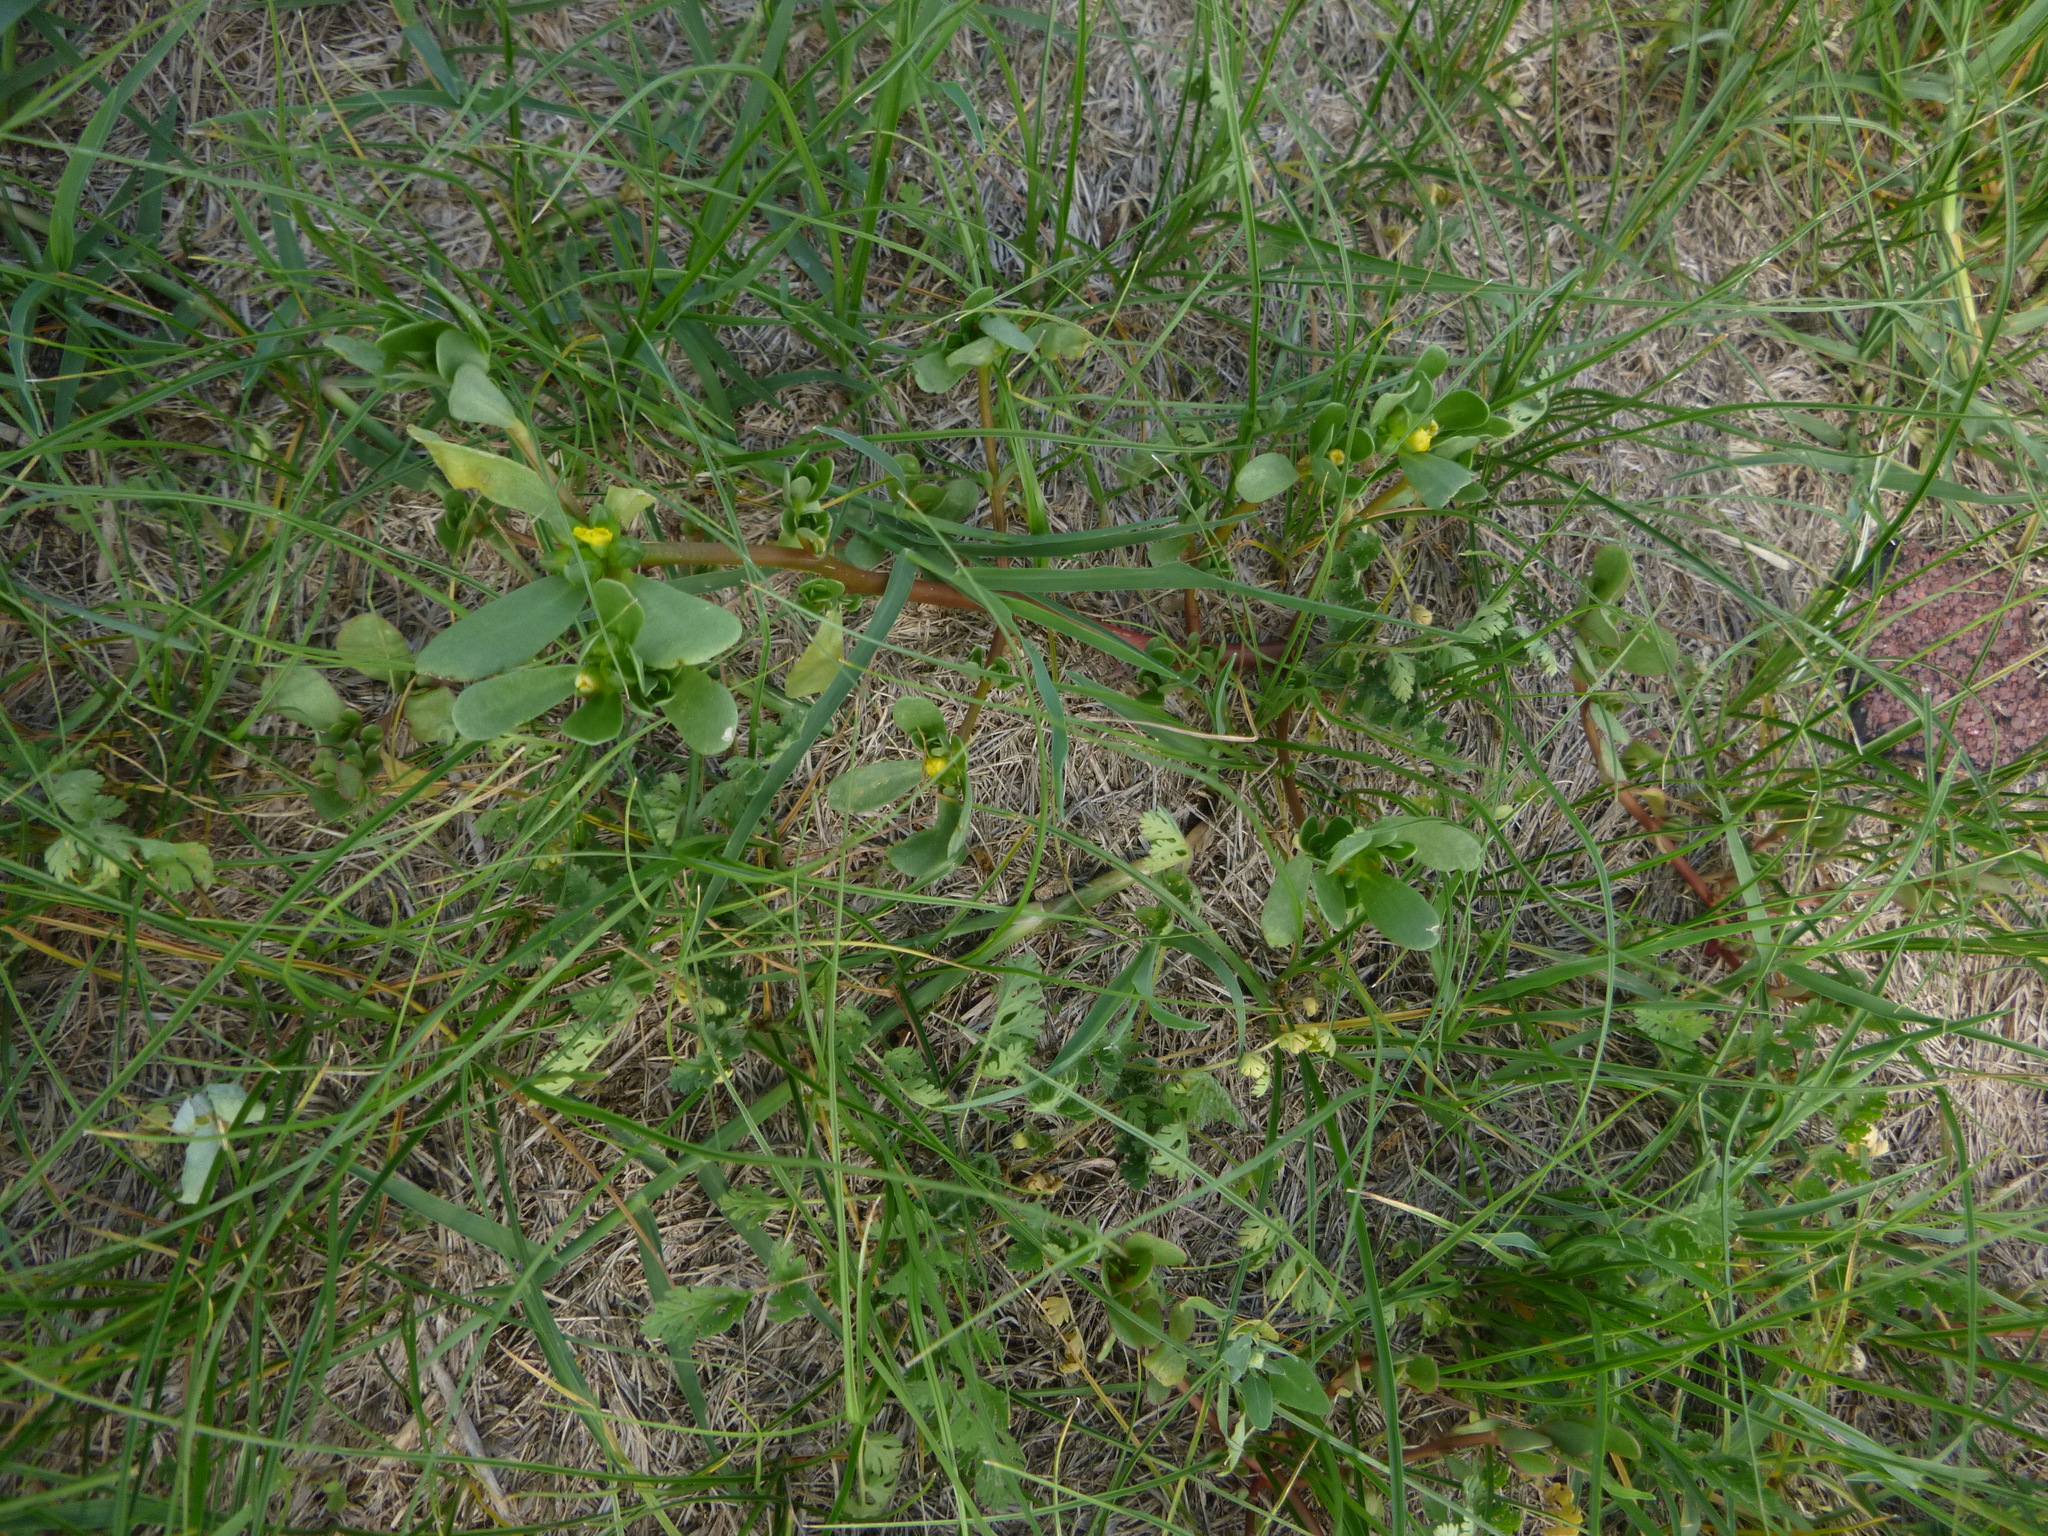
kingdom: Plantae
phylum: Tracheophyta
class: Magnoliopsida
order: Caryophyllales
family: Portulacaceae
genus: Portulaca
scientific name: Portulaca oleracea
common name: Common purslane
